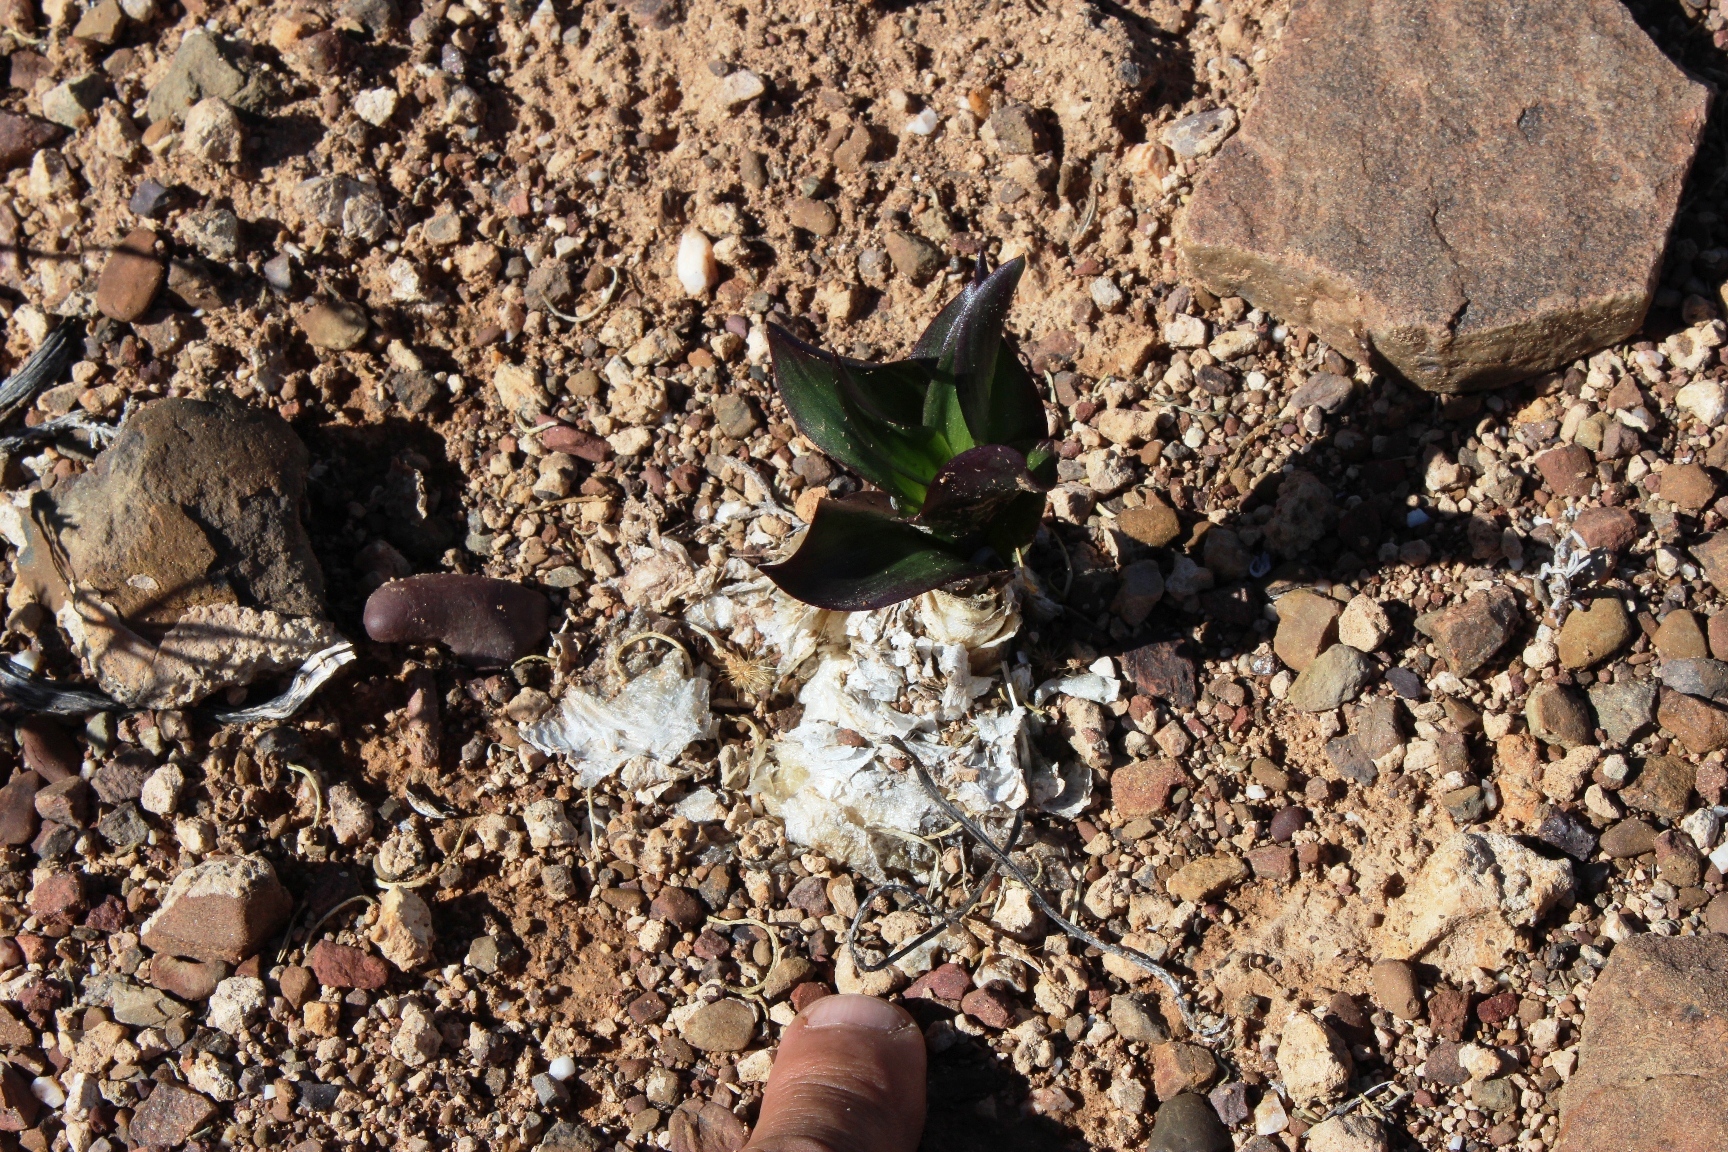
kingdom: Plantae
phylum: Tracheophyta
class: Liliopsida
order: Asparagales
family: Asparagaceae
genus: Fusifilum
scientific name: Fusifilum physodes
